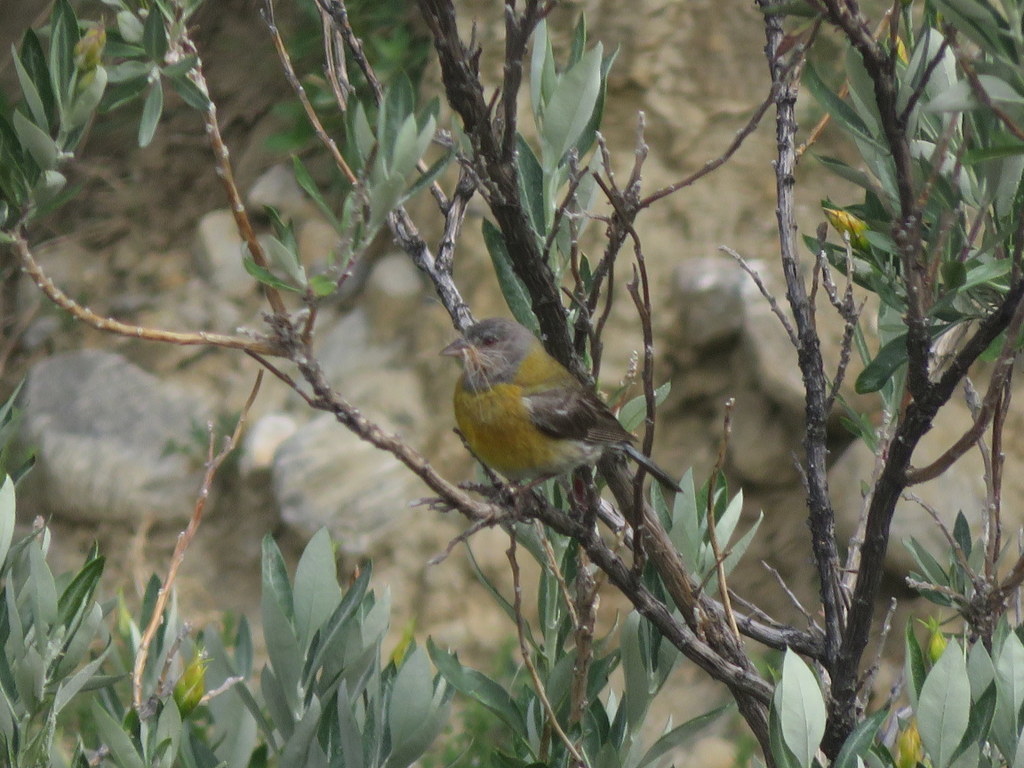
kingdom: Animalia
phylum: Chordata
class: Aves
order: Passeriformes
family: Thraupidae
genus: Phrygilus
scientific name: Phrygilus gayi
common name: Grey-hooded sierra finch
